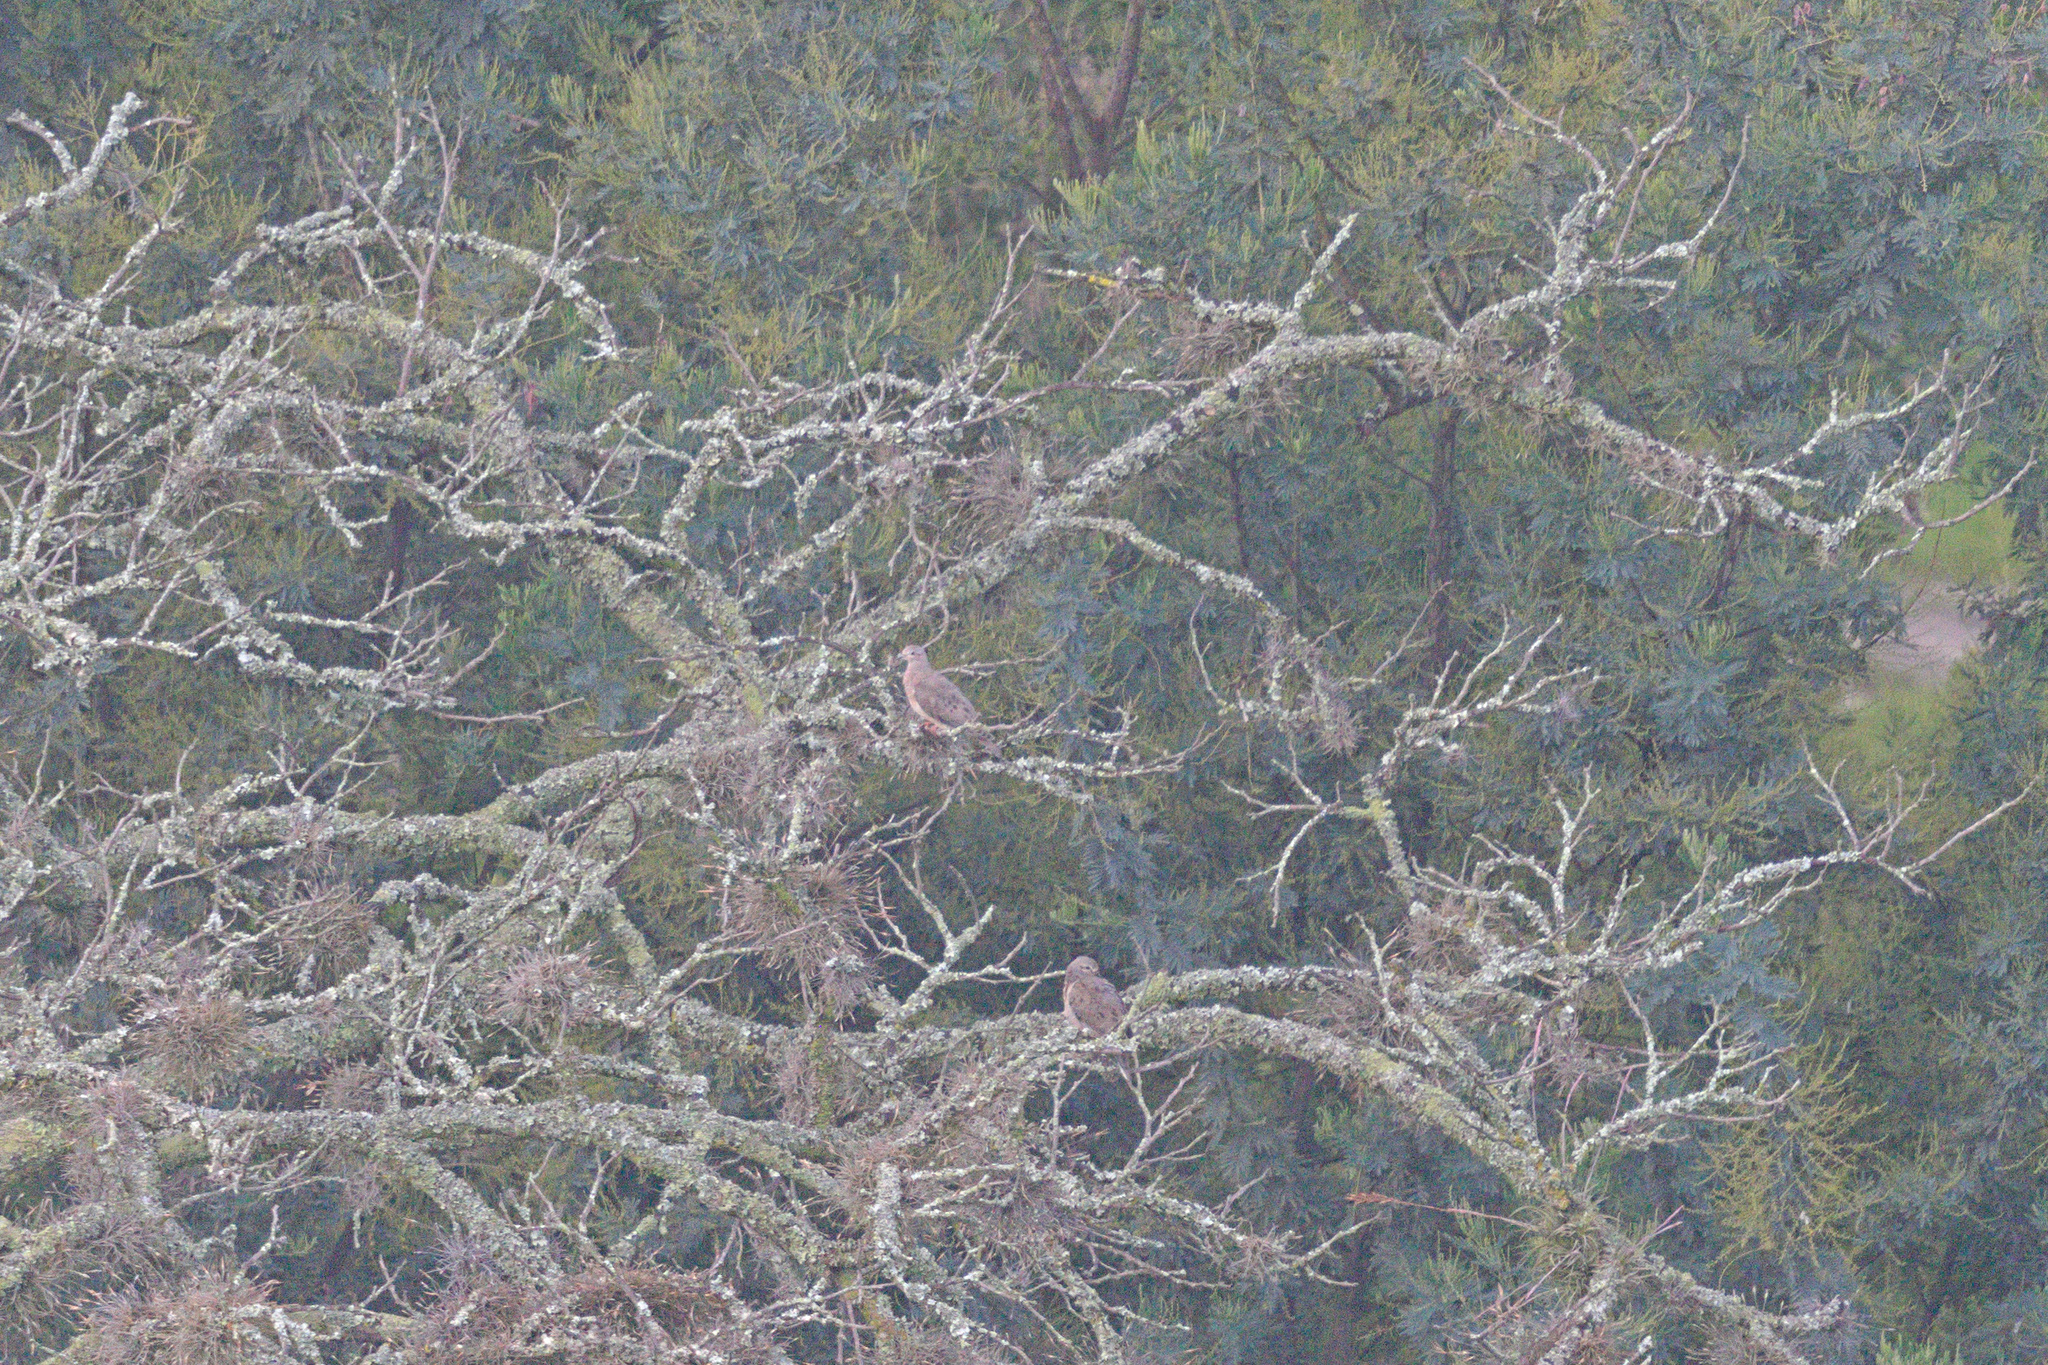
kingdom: Animalia
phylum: Chordata
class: Aves
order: Columbiformes
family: Columbidae
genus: Zenaida
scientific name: Zenaida auriculata
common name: Eared dove
